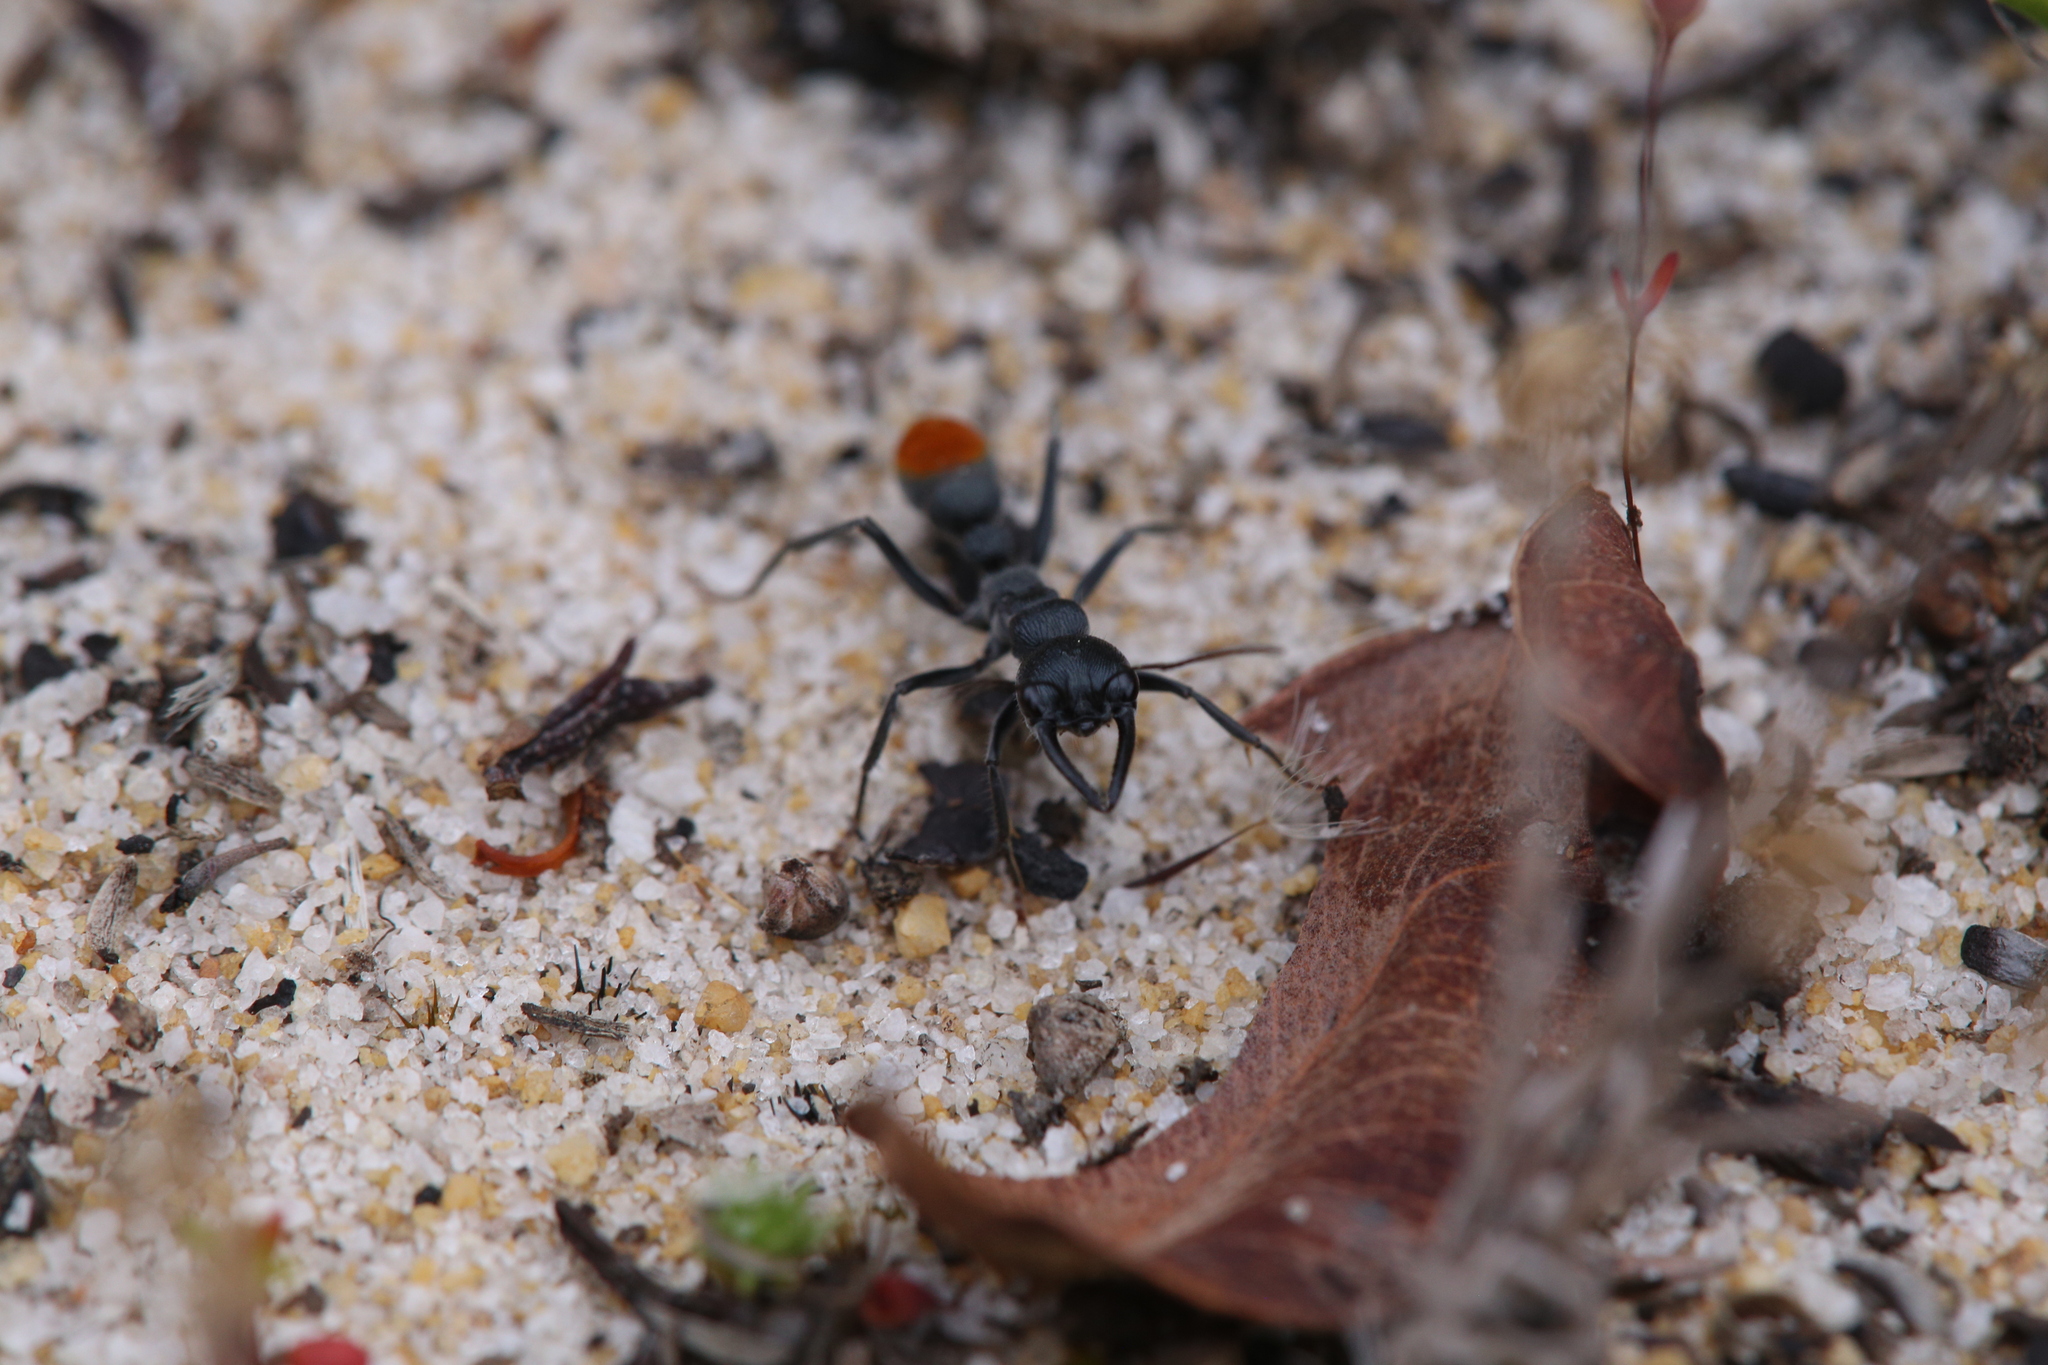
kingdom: Animalia
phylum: Arthropoda
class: Insecta
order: Hymenoptera
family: Formicidae
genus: Myrmecia
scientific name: Myrmecia mandibularis
